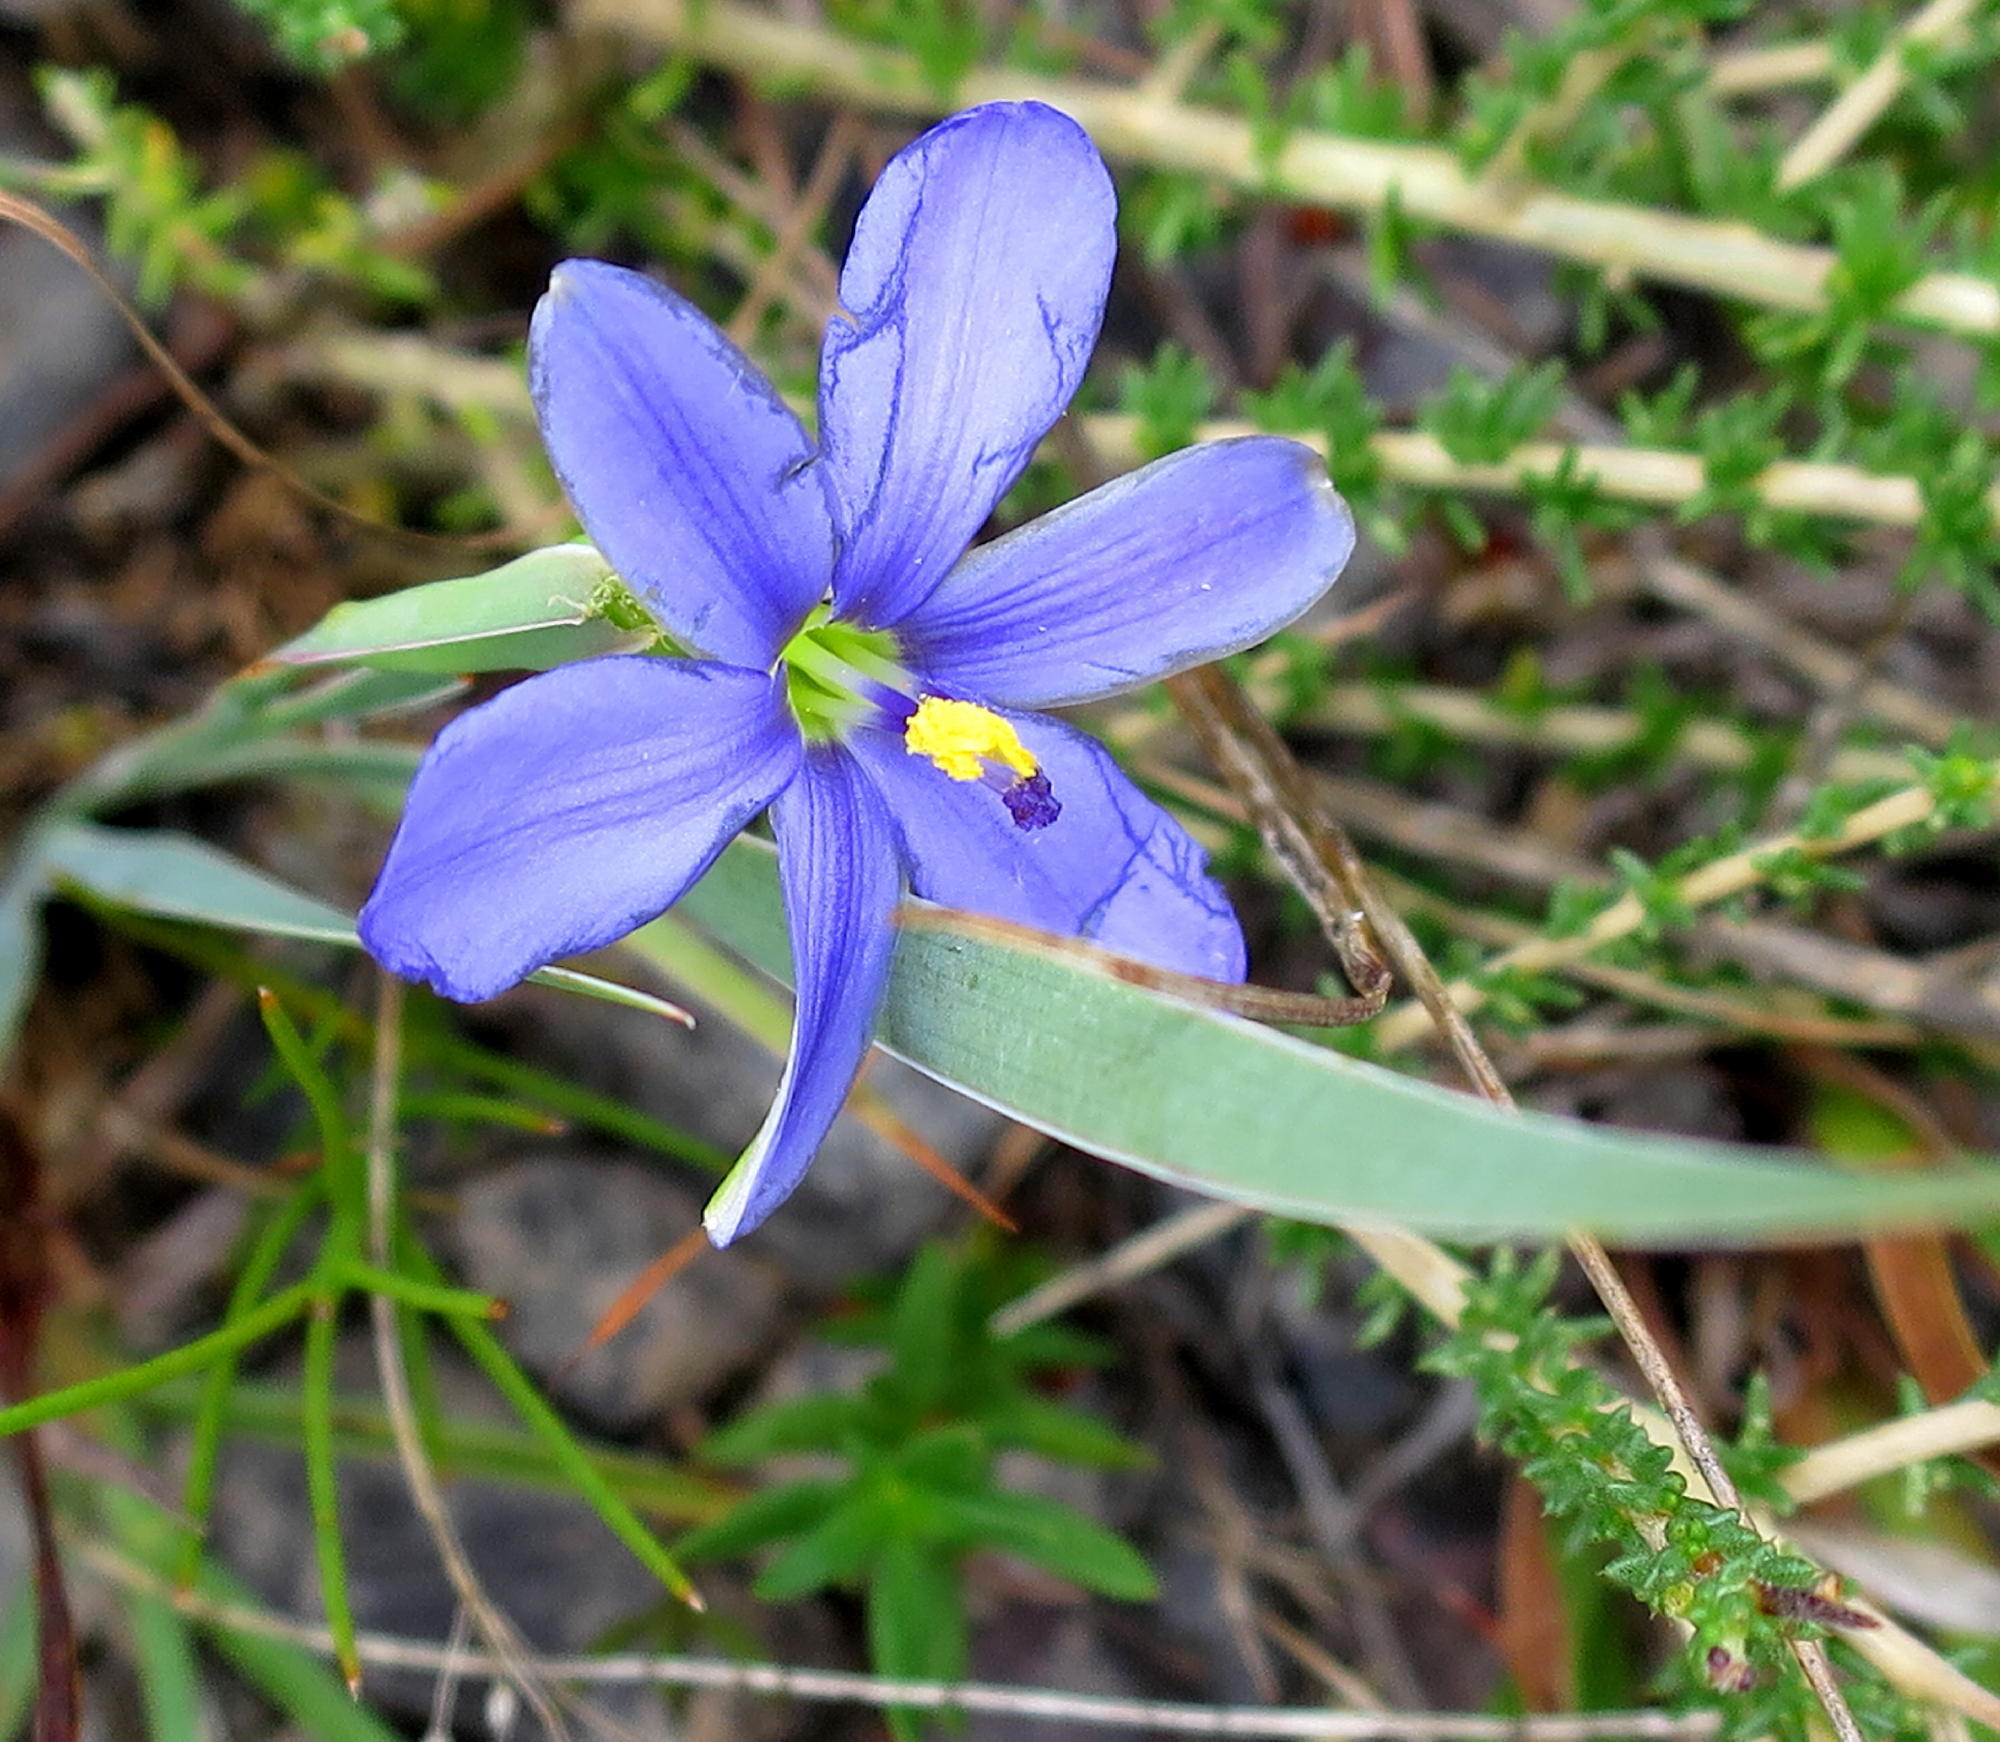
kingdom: Plantae
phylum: Tracheophyta
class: Liliopsida
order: Asparagales
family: Iridaceae
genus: Aristea
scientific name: Aristea nana
